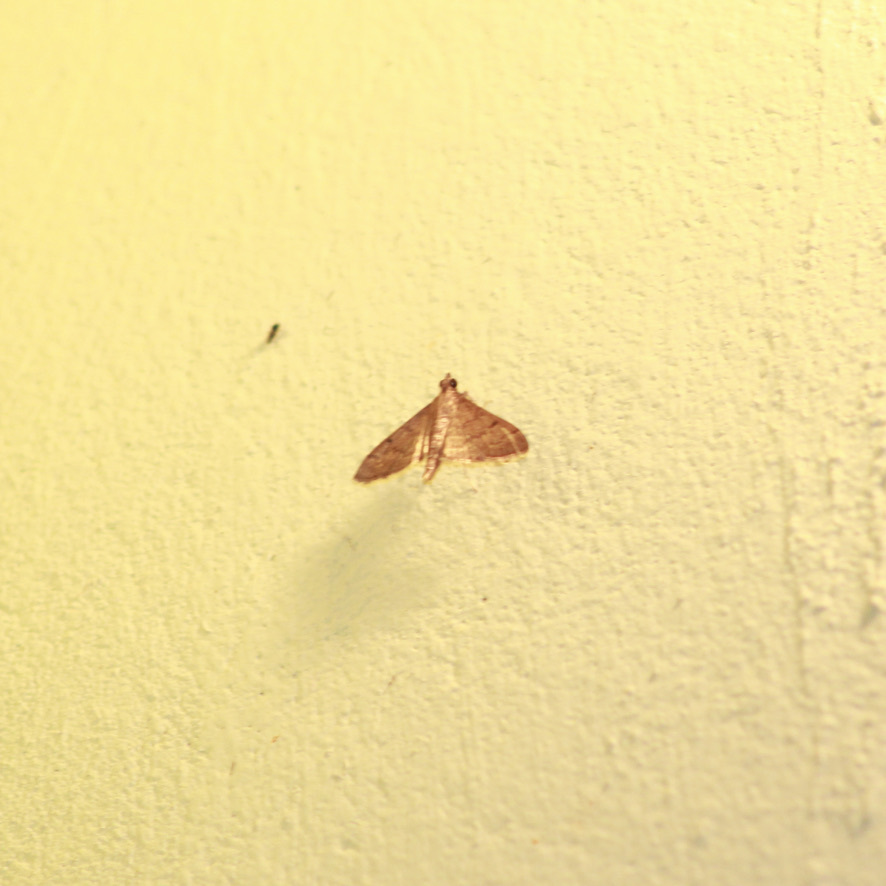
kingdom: Animalia
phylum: Arthropoda
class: Insecta
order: Lepidoptera
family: Crambidae
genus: Herpetogramma
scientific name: Herpetogramma phaeopteralis
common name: Dusky herpetogramma moth
